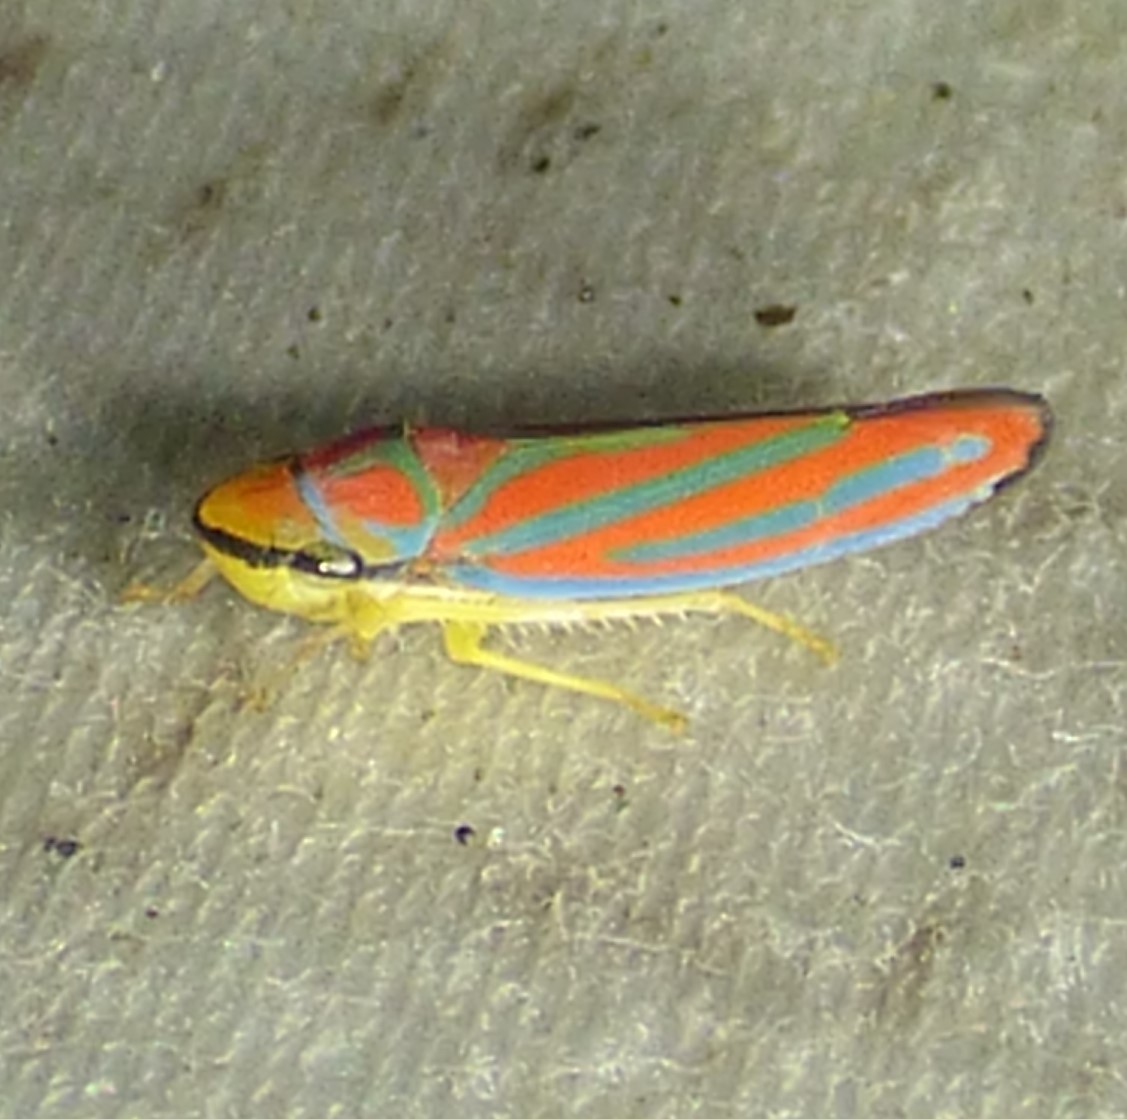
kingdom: Animalia
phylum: Arthropoda
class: Insecta
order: Hemiptera
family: Cicadellidae
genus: Graphocephala
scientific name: Graphocephala coccinea
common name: Candy-striped leafhopper
